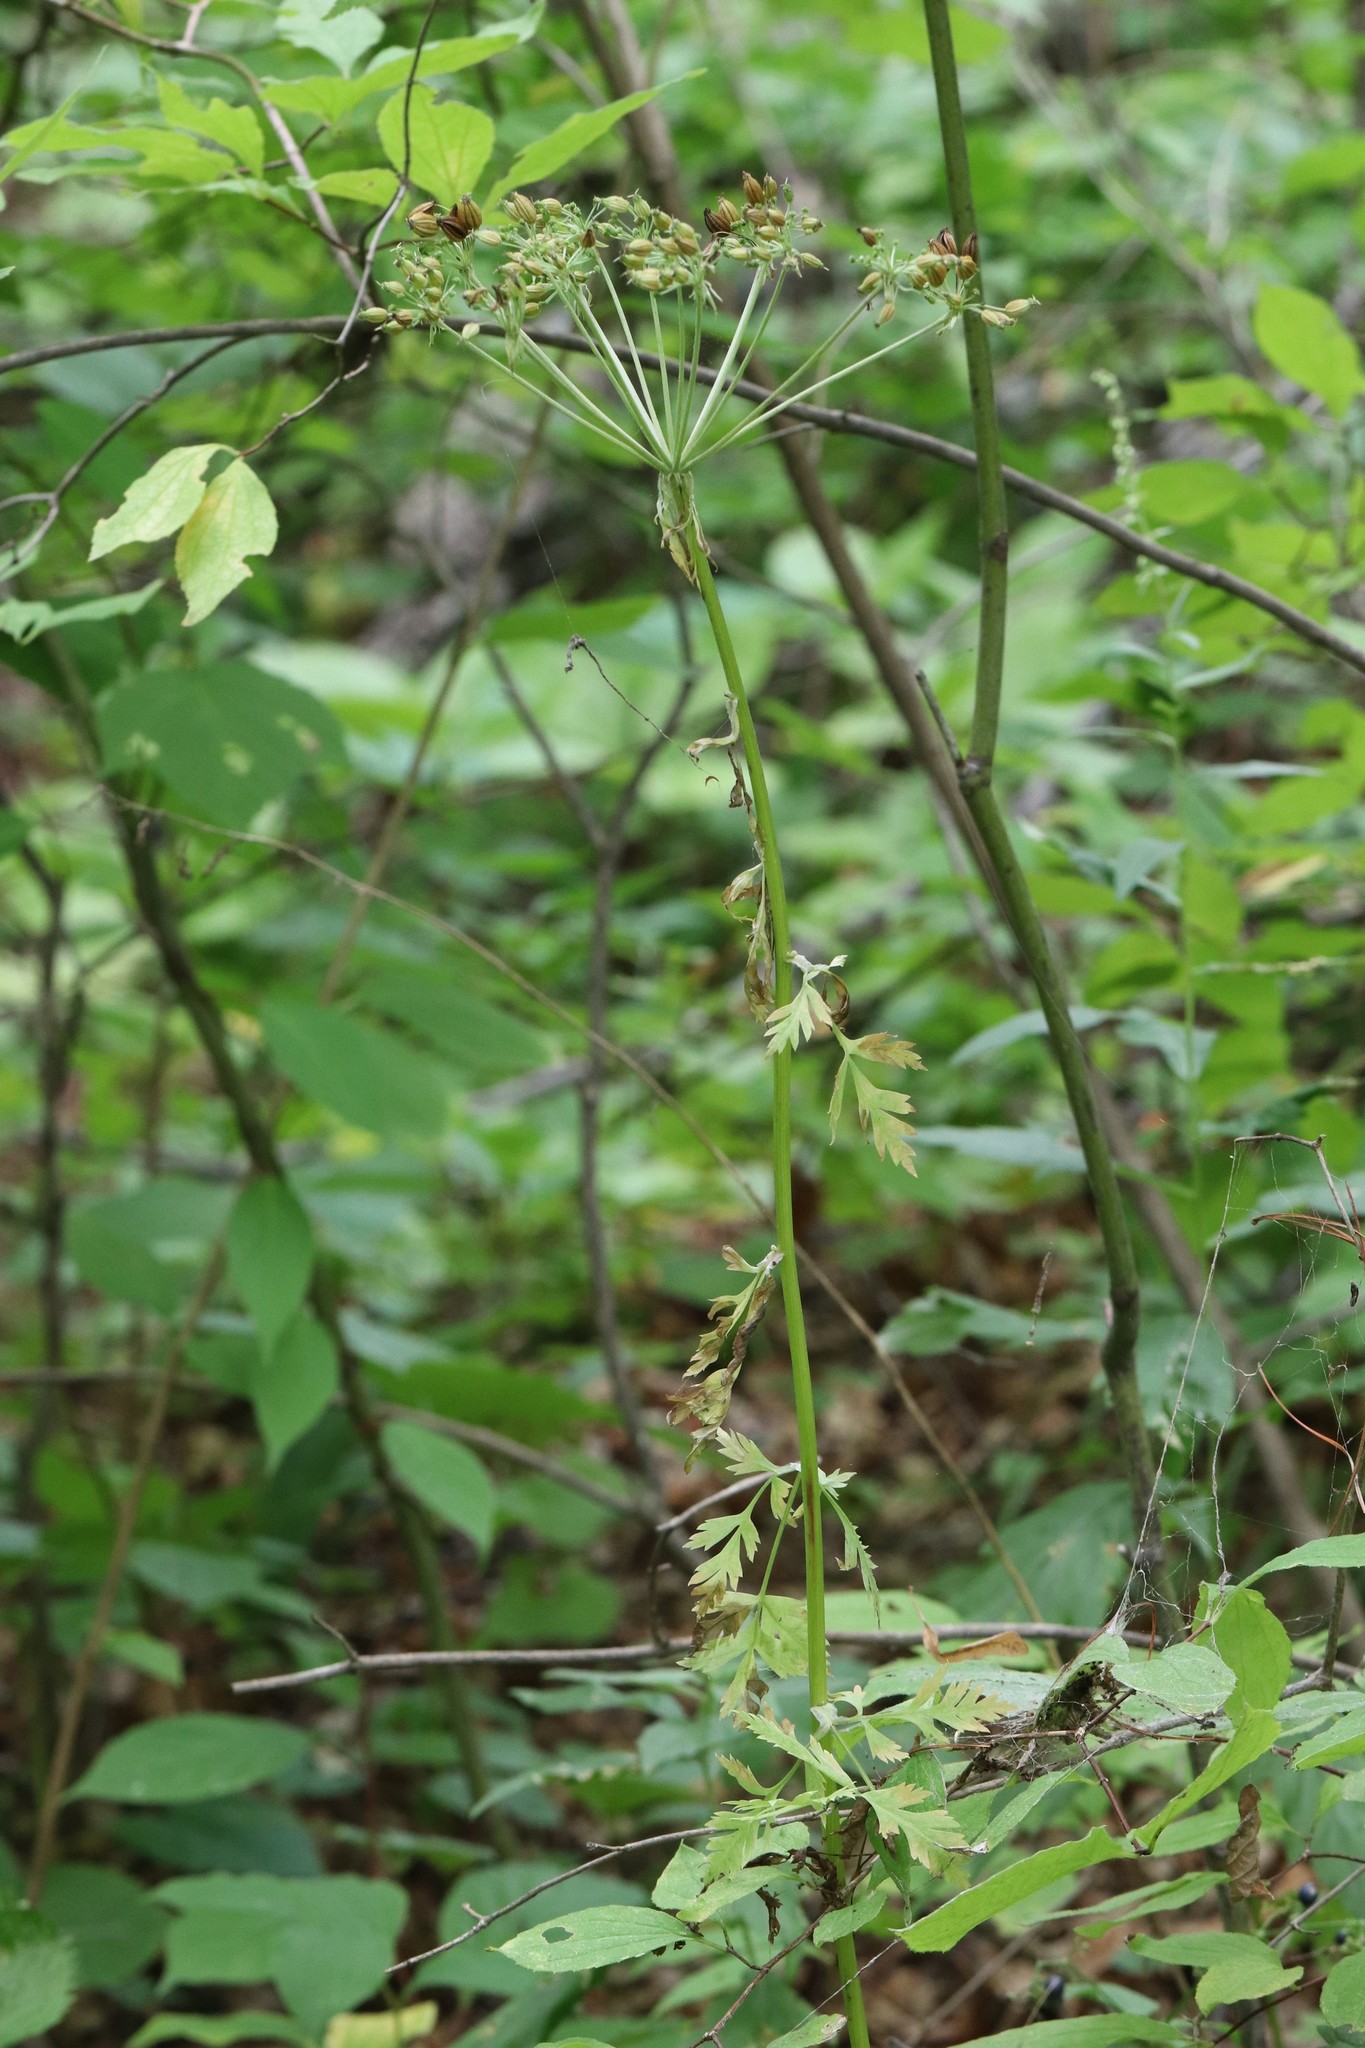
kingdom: Plantae
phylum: Tracheophyta
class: Magnoliopsida
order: Apiales
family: Apiaceae
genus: Pleurospermum
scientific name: Pleurospermum uralense
